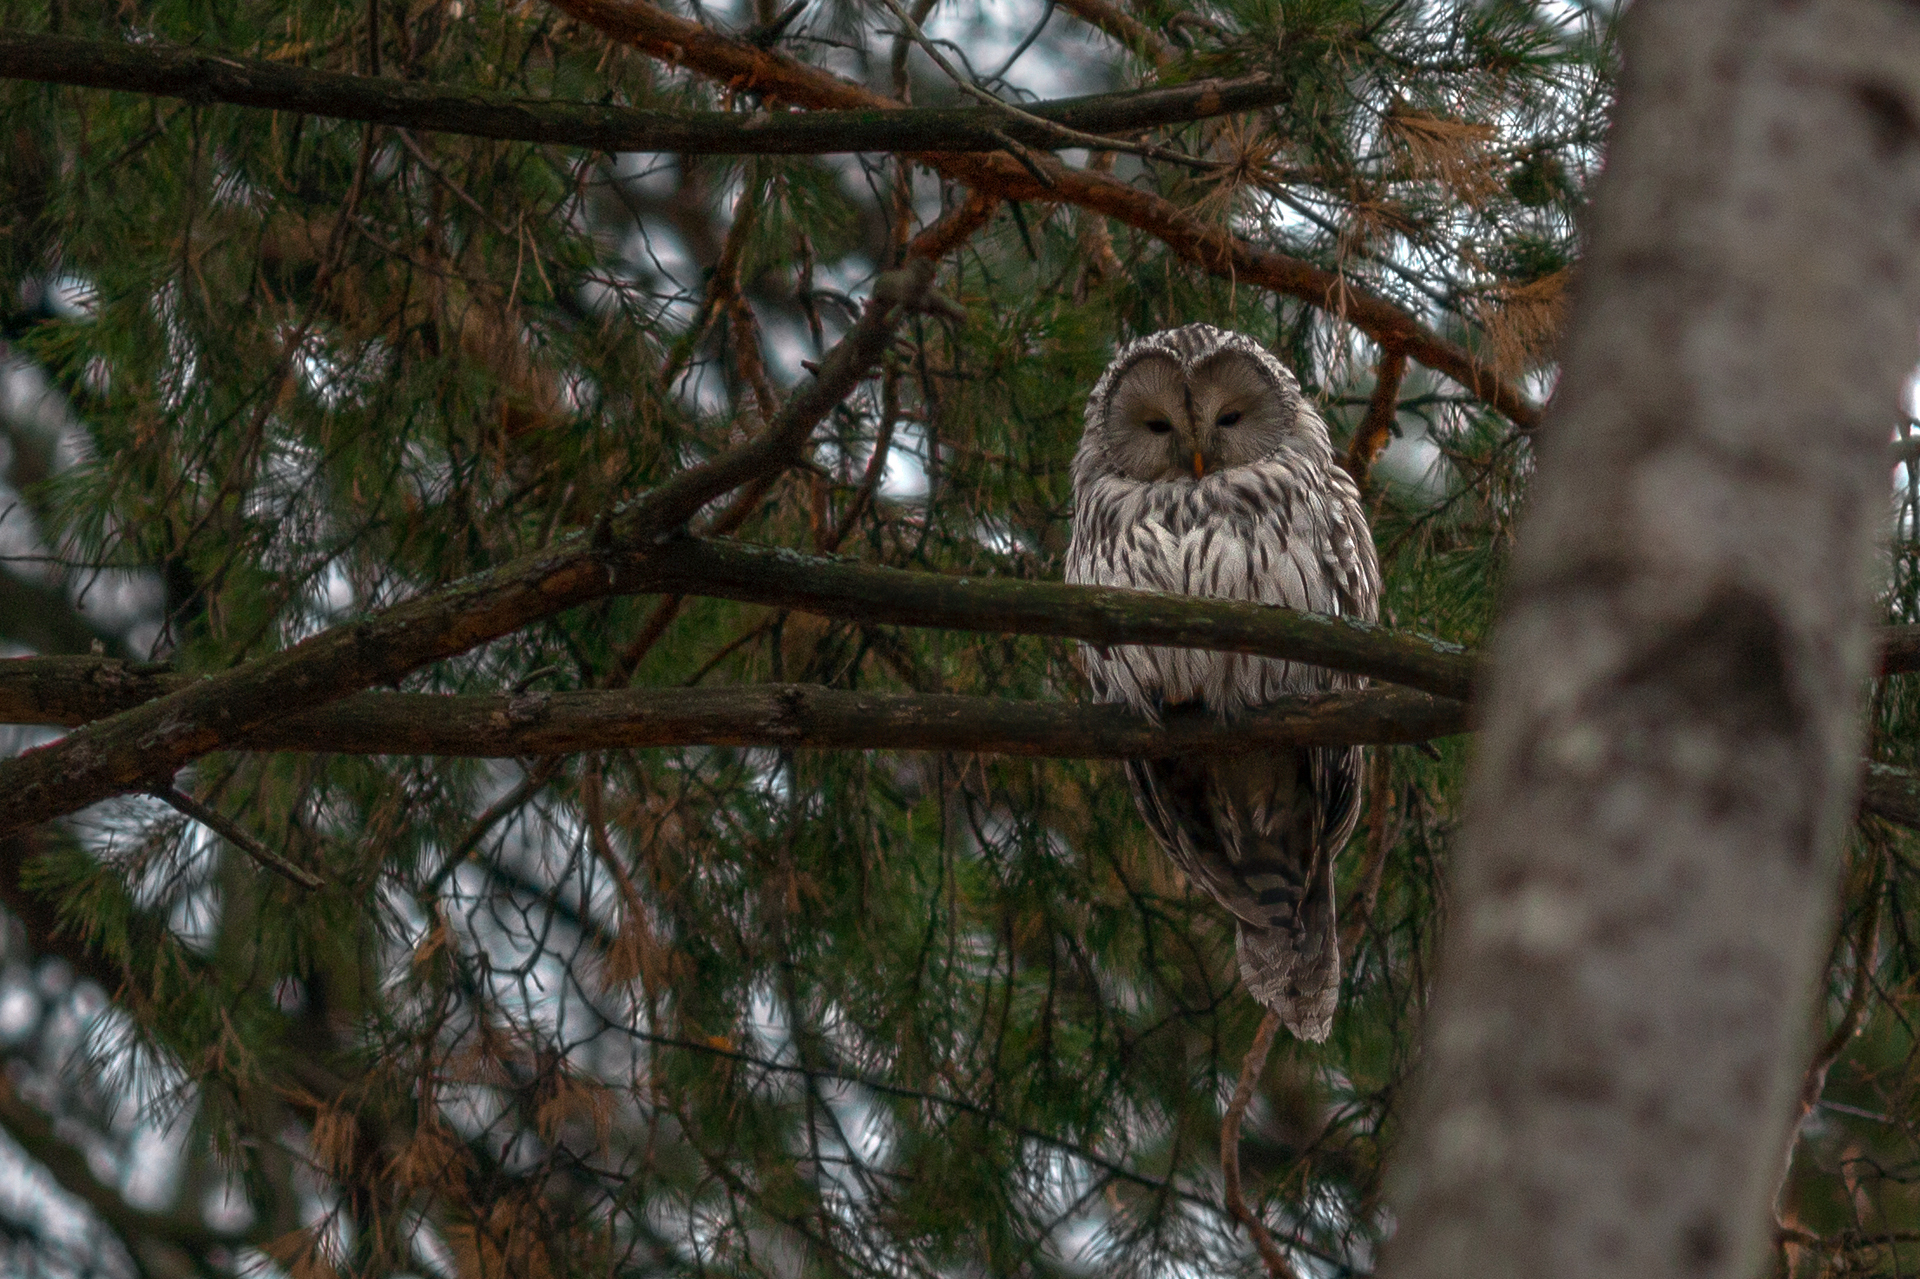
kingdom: Animalia
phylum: Chordata
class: Aves
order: Strigiformes
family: Strigidae
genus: Strix
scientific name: Strix uralensis
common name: Ural owl
